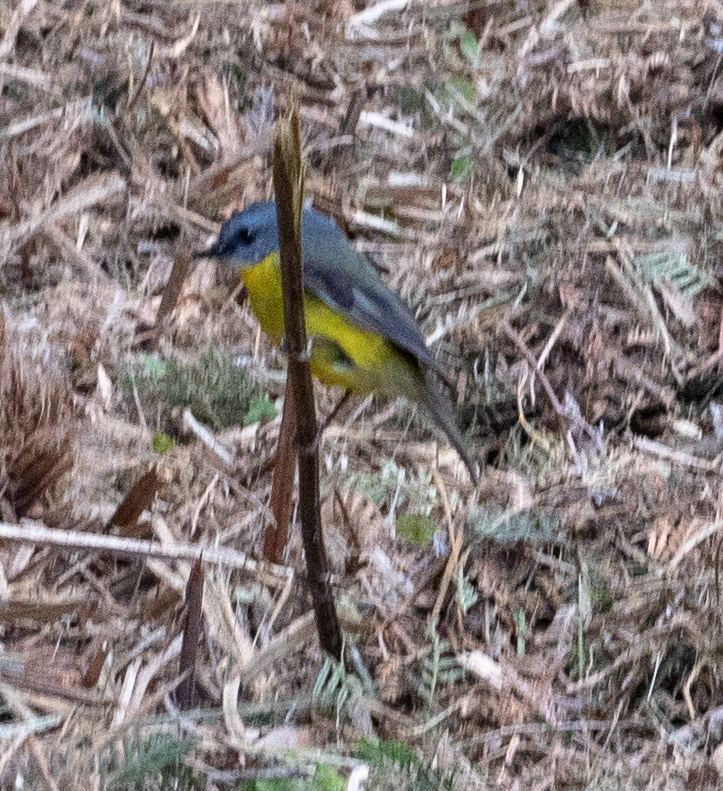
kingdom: Animalia
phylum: Chordata
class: Aves
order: Passeriformes
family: Petroicidae
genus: Eopsaltria
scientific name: Eopsaltria australis
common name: Eastern yellow robin
